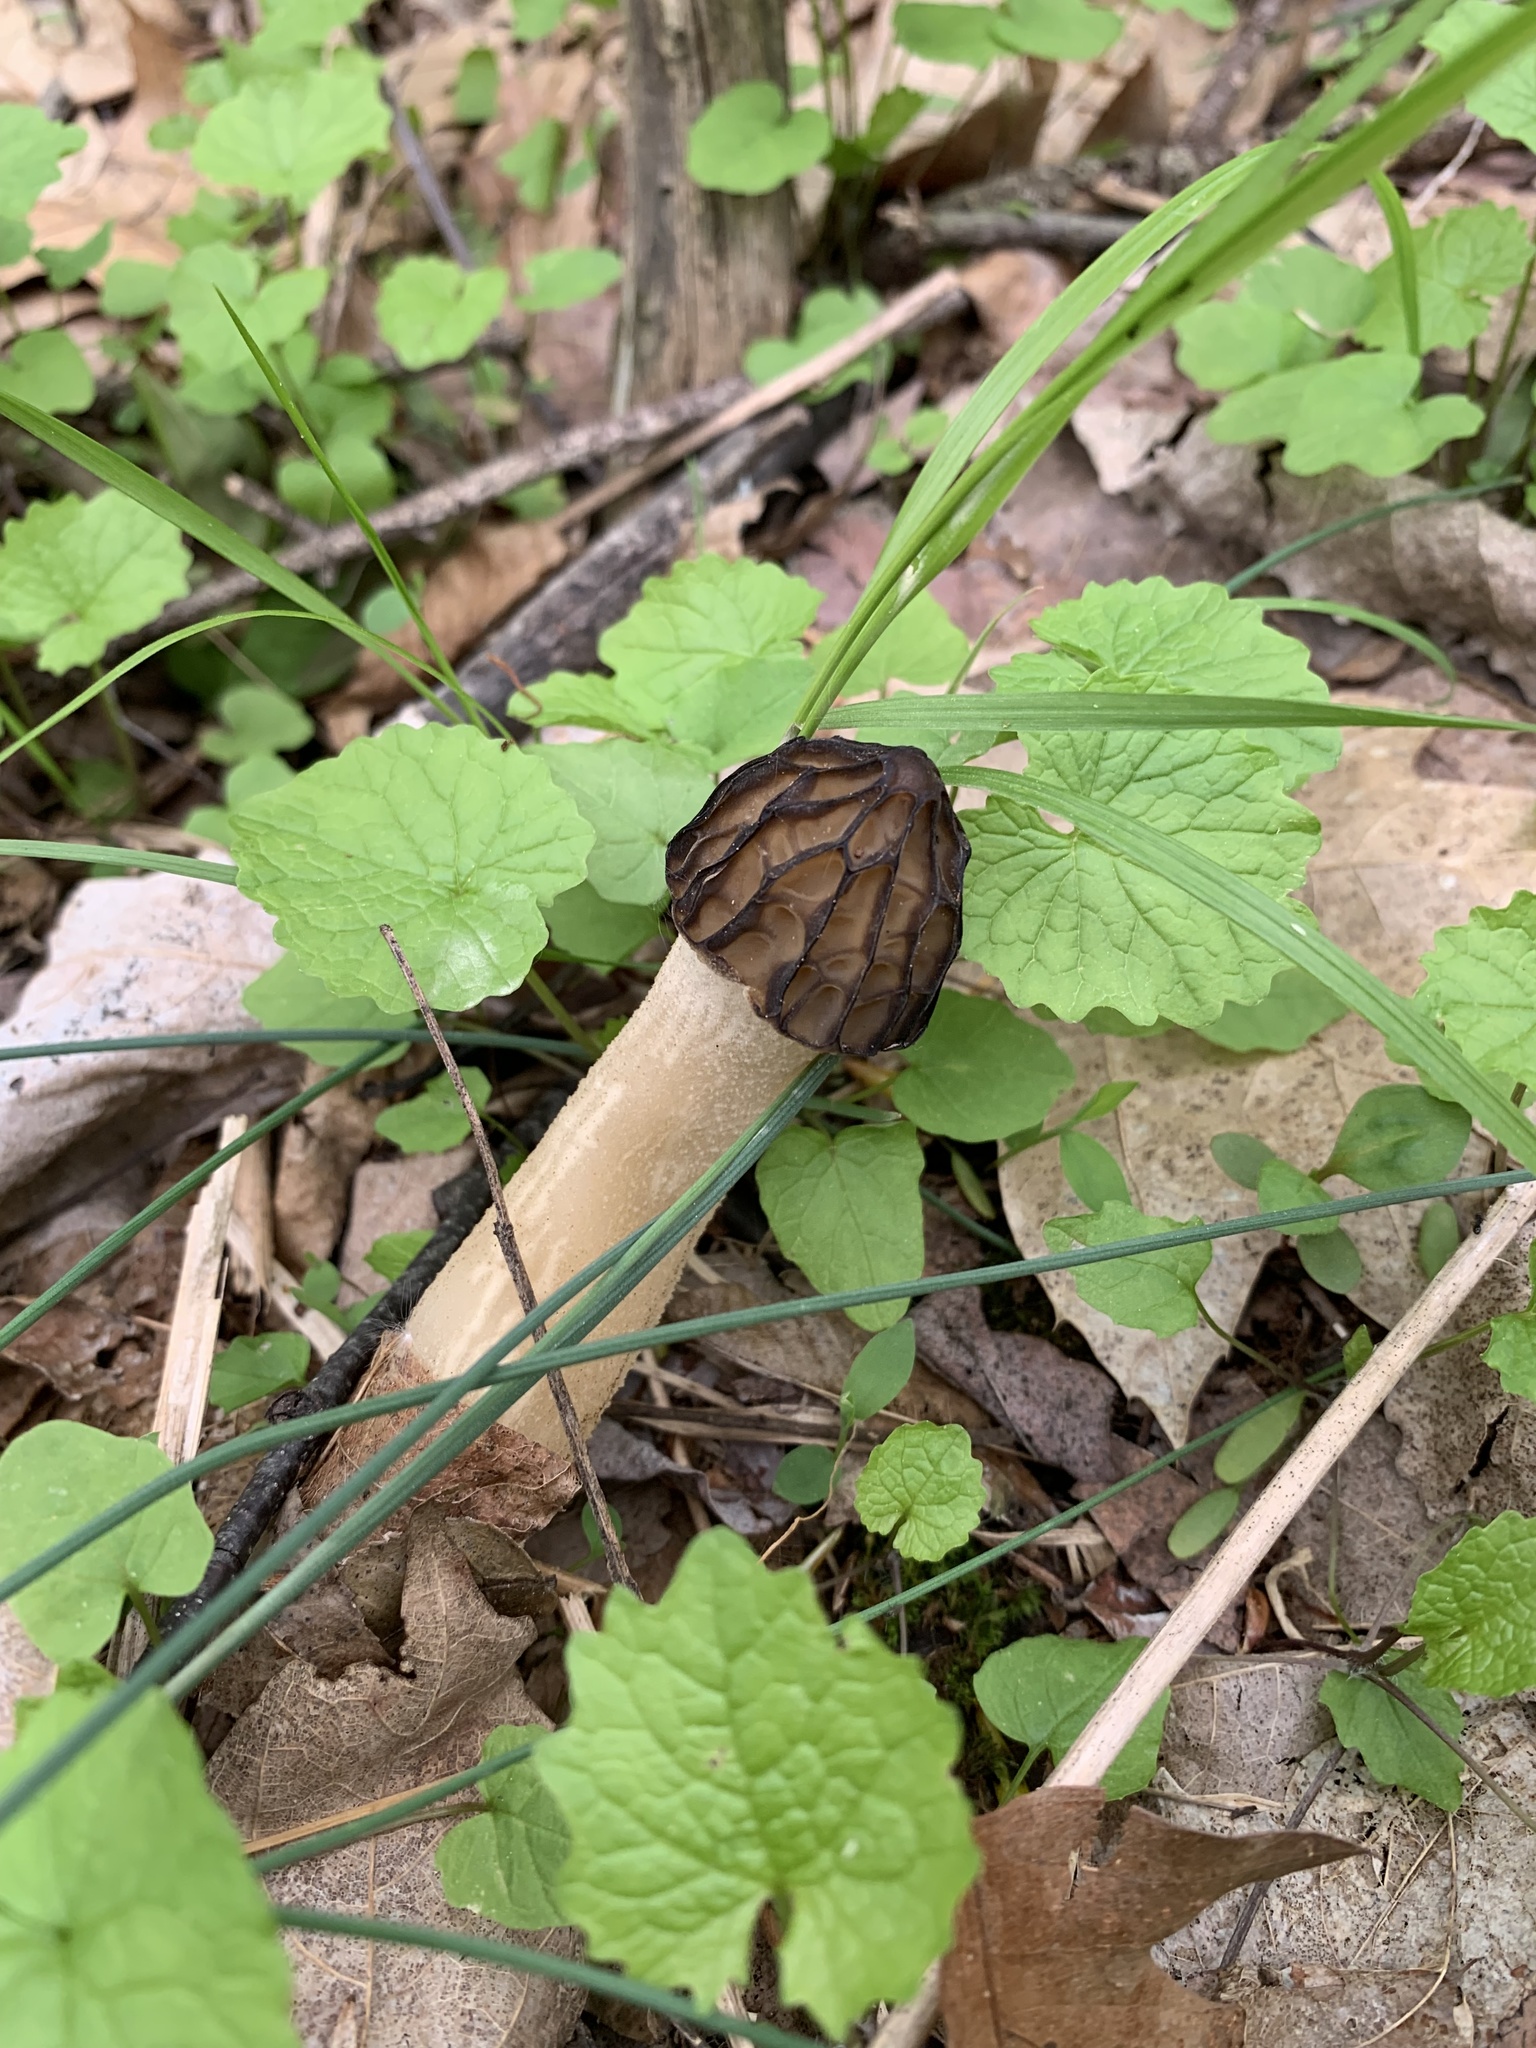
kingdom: Fungi
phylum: Ascomycota
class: Pezizomycetes
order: Pezizales
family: Morchellaceae
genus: Morchella
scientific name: Morchella punctipes
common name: Half-free morel
